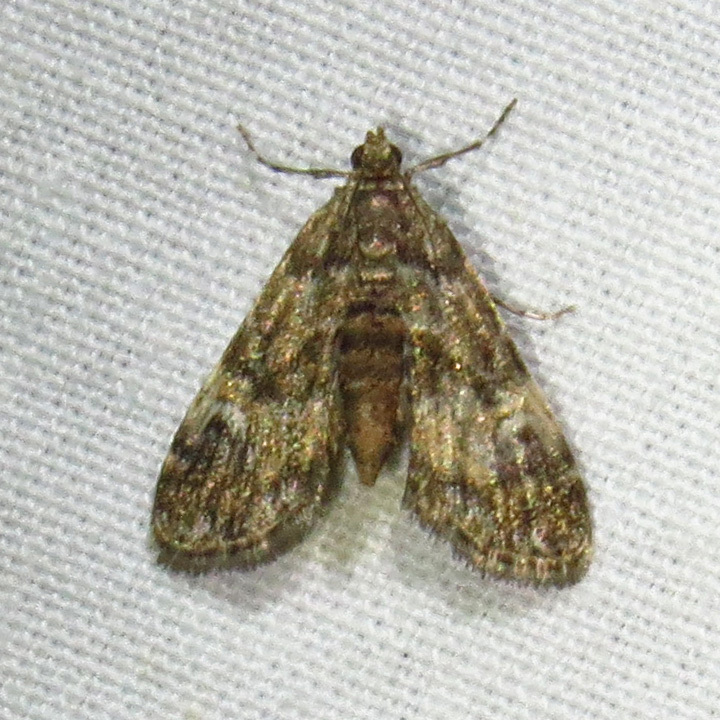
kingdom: Animalia
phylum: Arthropoda
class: Insecta
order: Lepidoptera
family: Crambidae
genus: Elophila
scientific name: Elophila obliteralis
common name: Waterlily leafcutter moth
